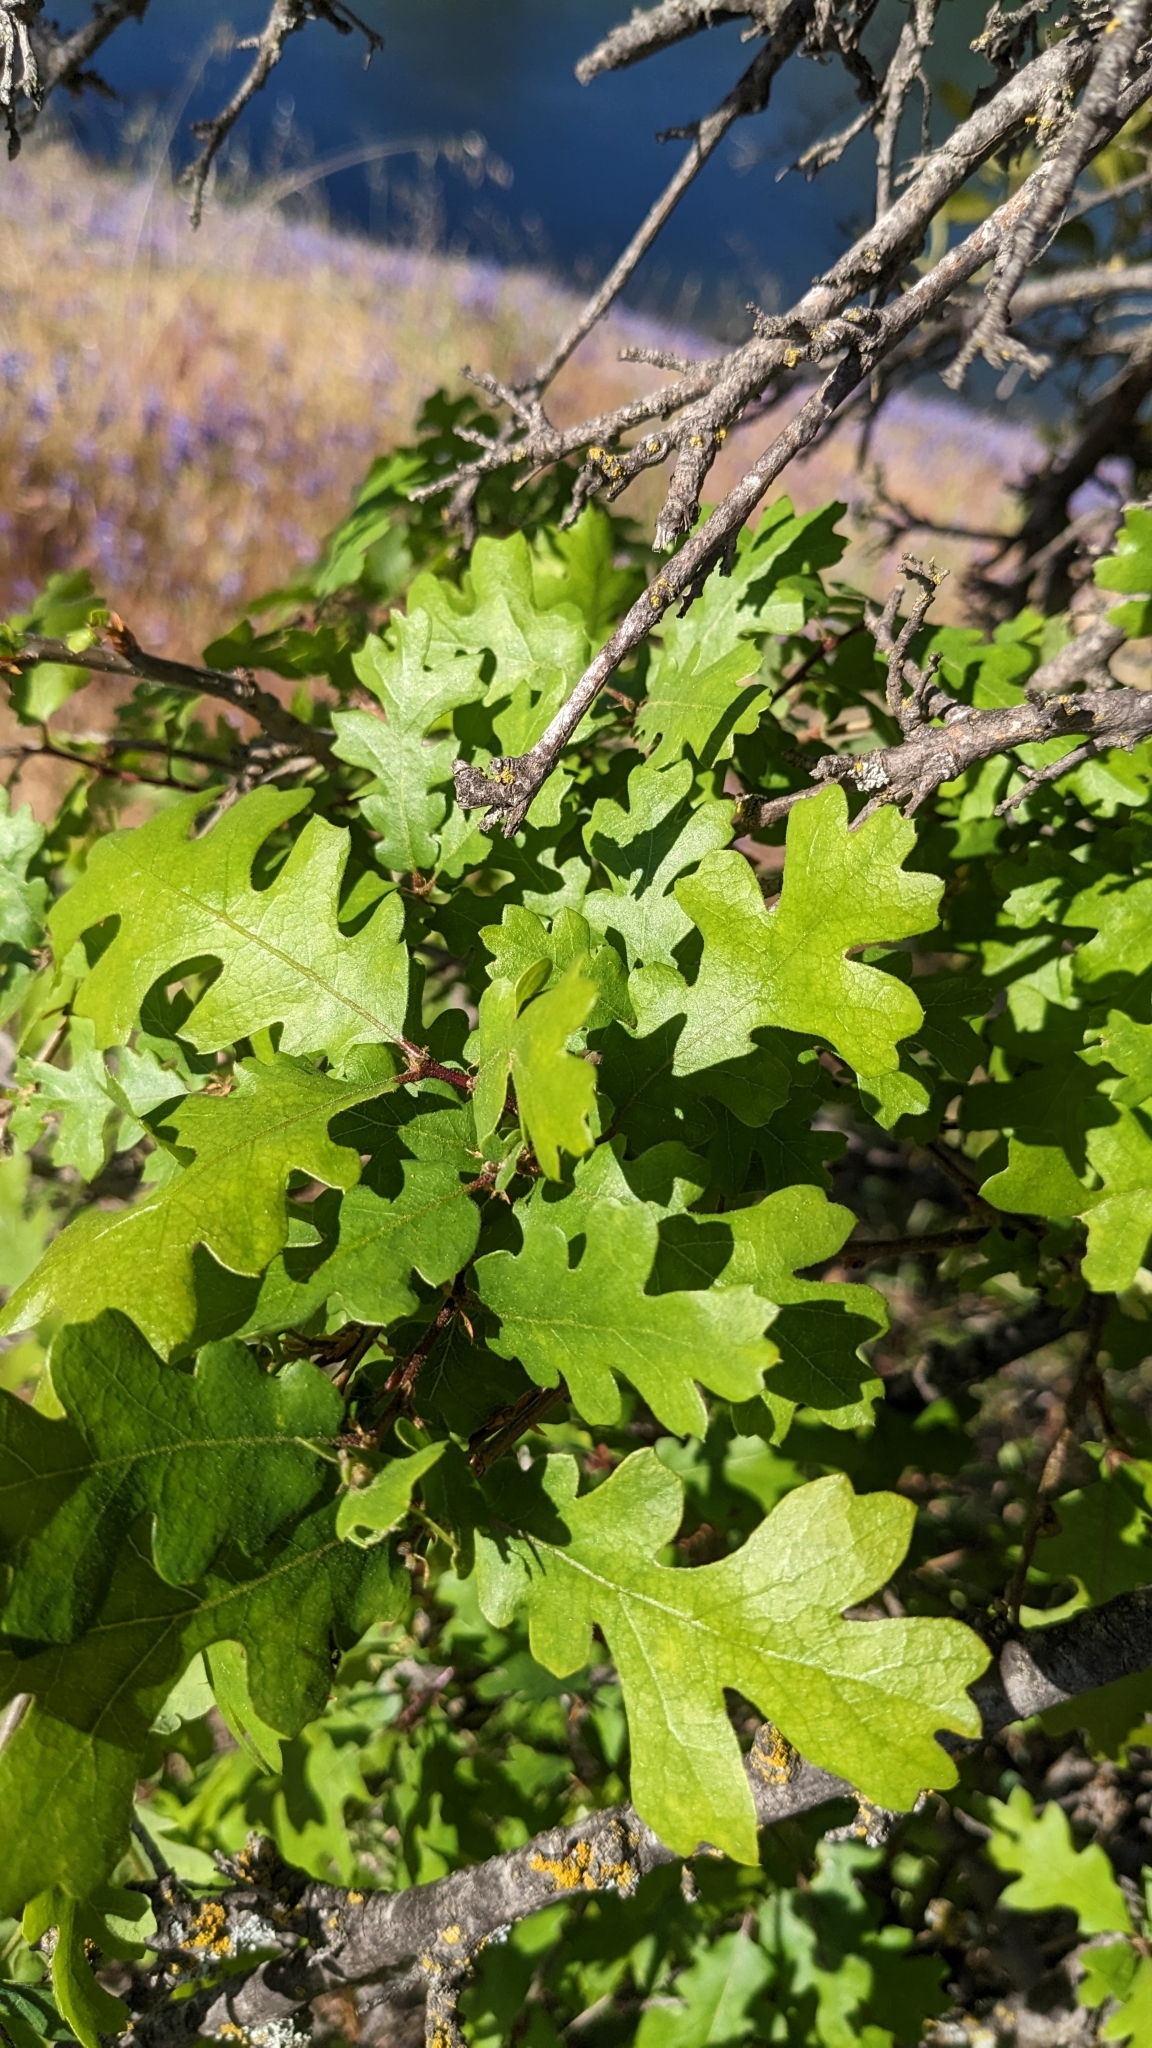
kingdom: Plantae
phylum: Tracheophyta
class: Magnoliopsida
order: Fagales
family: Fagaceae
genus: Quercus
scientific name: Quercus lobata
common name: Valley oak
